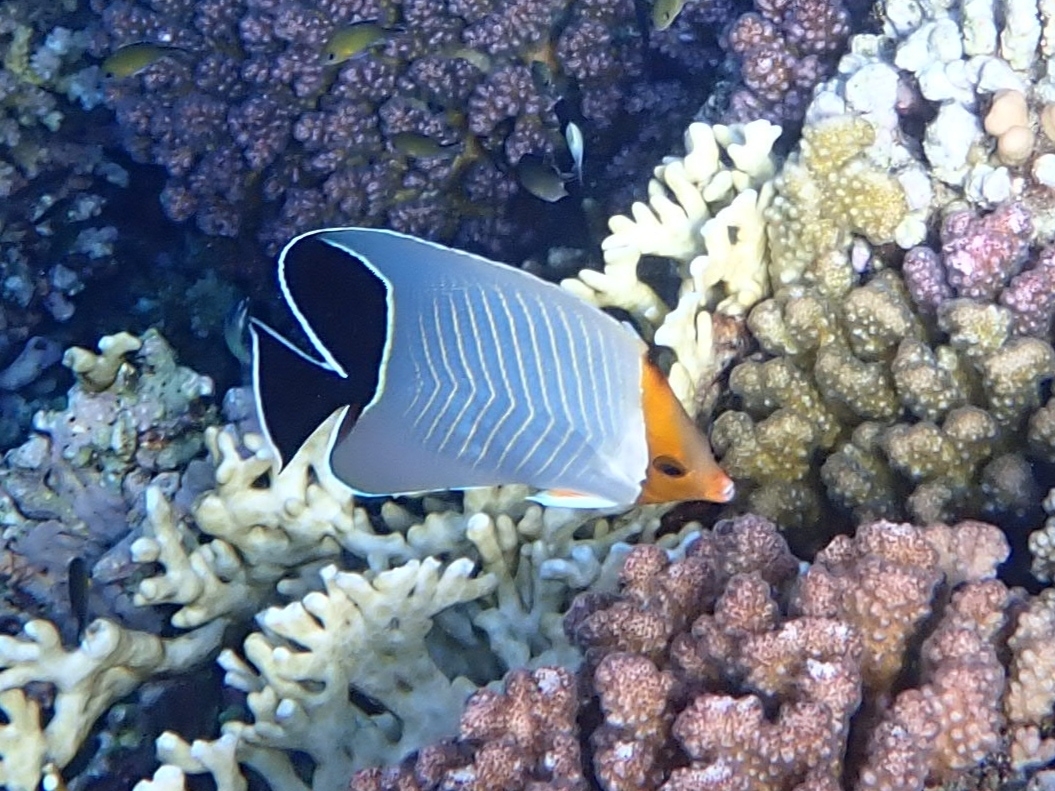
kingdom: Animalia
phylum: Chordata
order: Perciformes
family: Chaetodontidae
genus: Chaetodon
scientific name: Chaetodon larvatus
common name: Hooded butterflyfish
